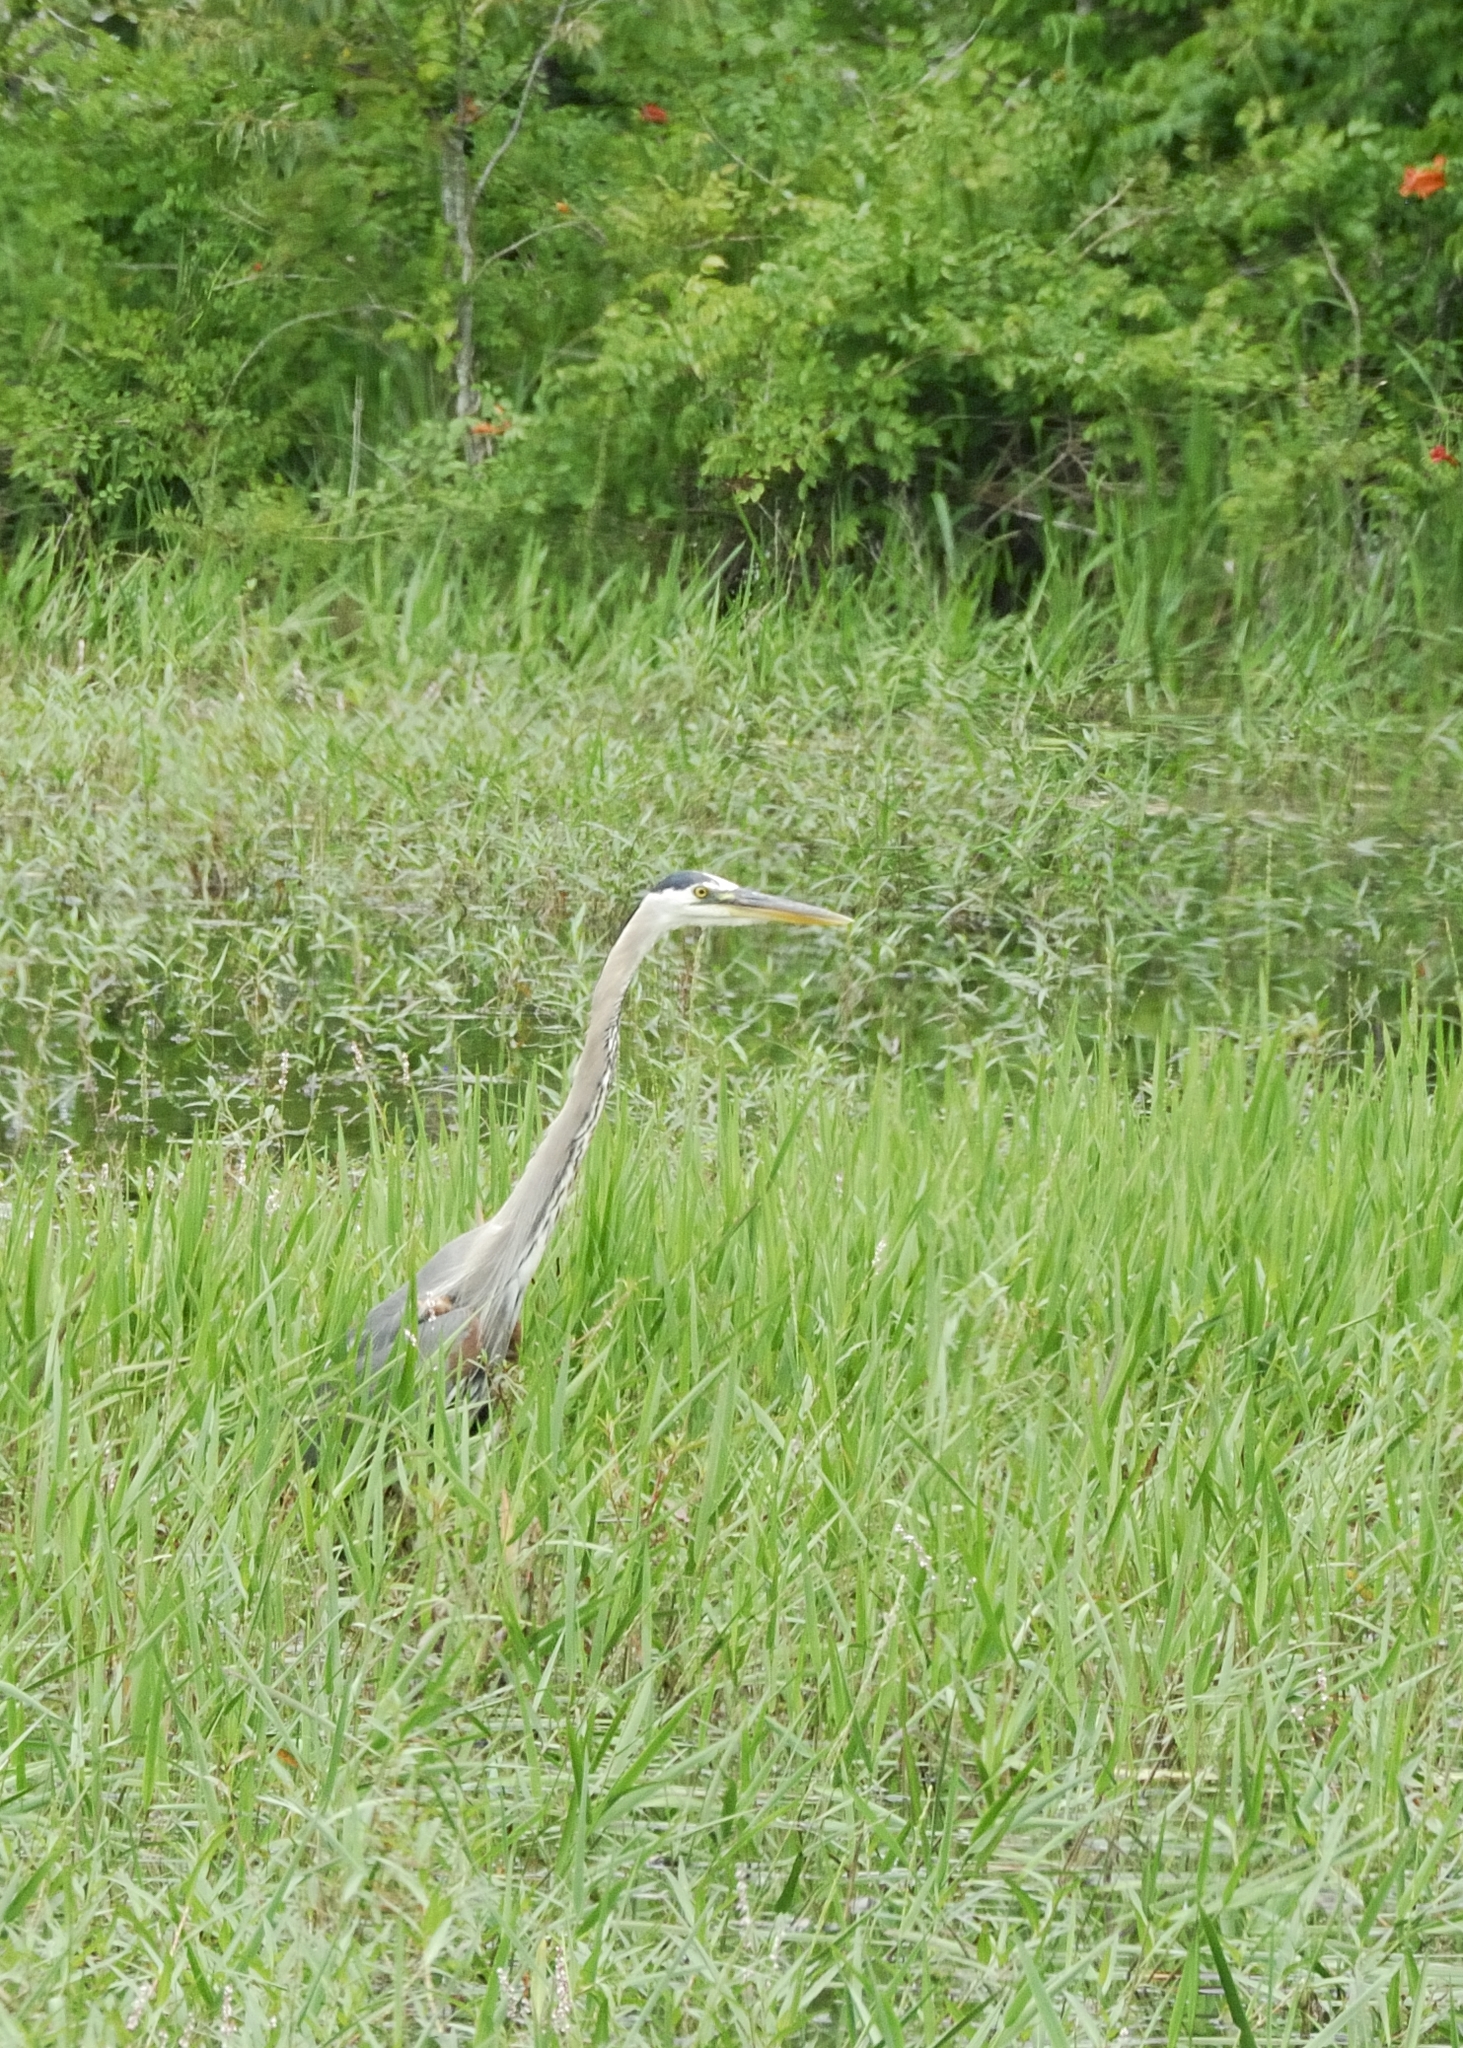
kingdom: Animalia
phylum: Chordata
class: Aves
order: Pelecaniformes
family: Ardeidae
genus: Ardea
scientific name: Ardea herodias
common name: Great blue heron
